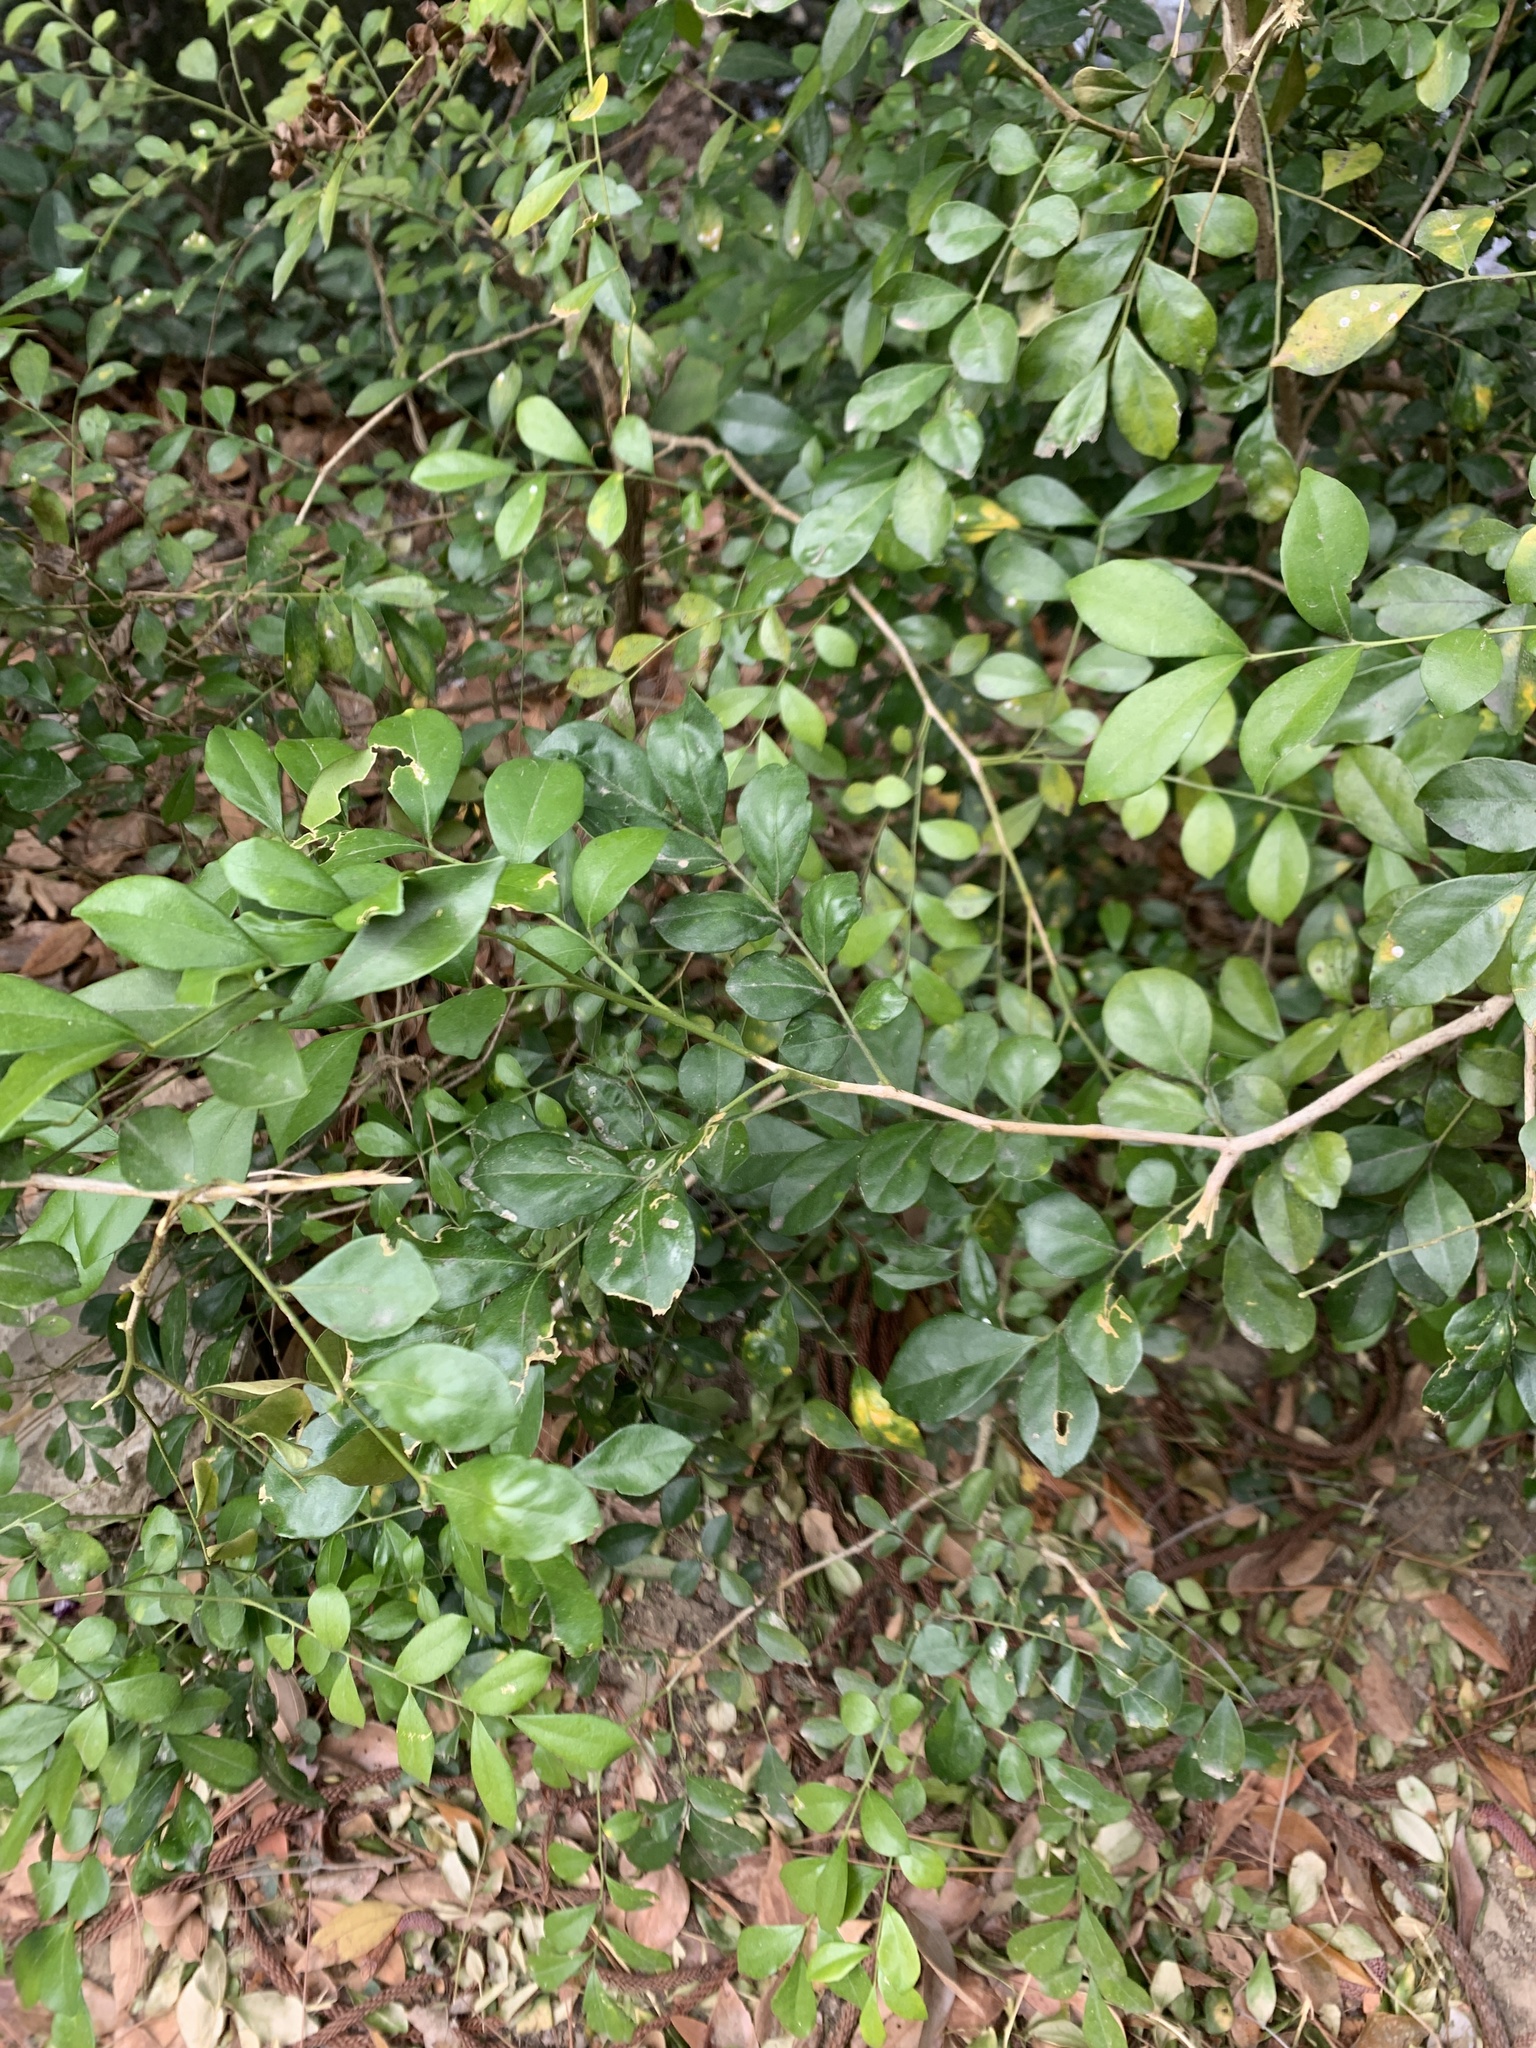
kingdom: Plantae
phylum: Tracheophyta
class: Magnoliopsida
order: Sapindales
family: Rutaceae
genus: Murraya
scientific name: Murraya paniculata
